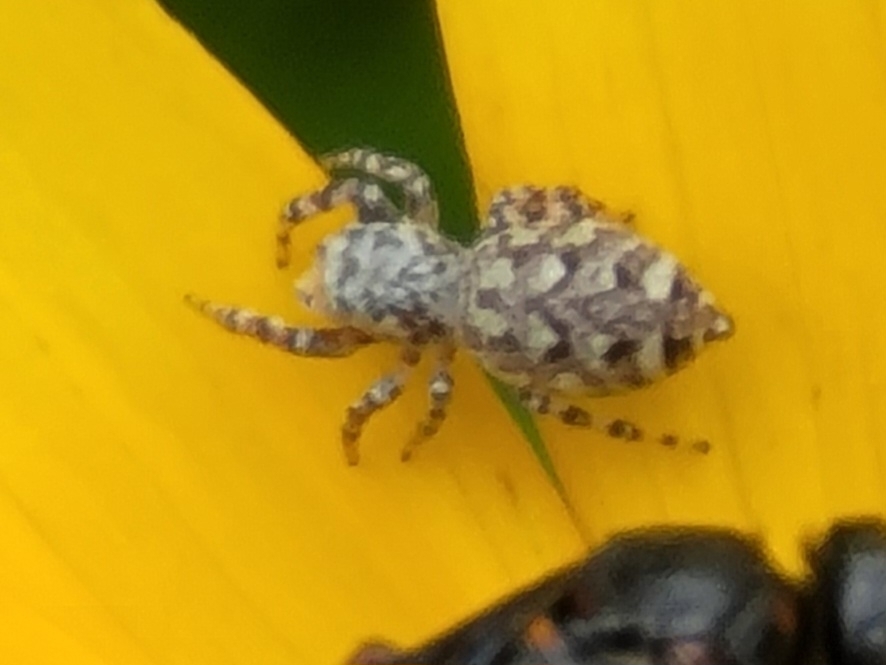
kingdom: Animalia
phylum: Arthropoda
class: Arachnida
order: Araneae
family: Salticidae
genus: Pelegrina
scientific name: Pelegrina galathea
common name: Jumping spiders
